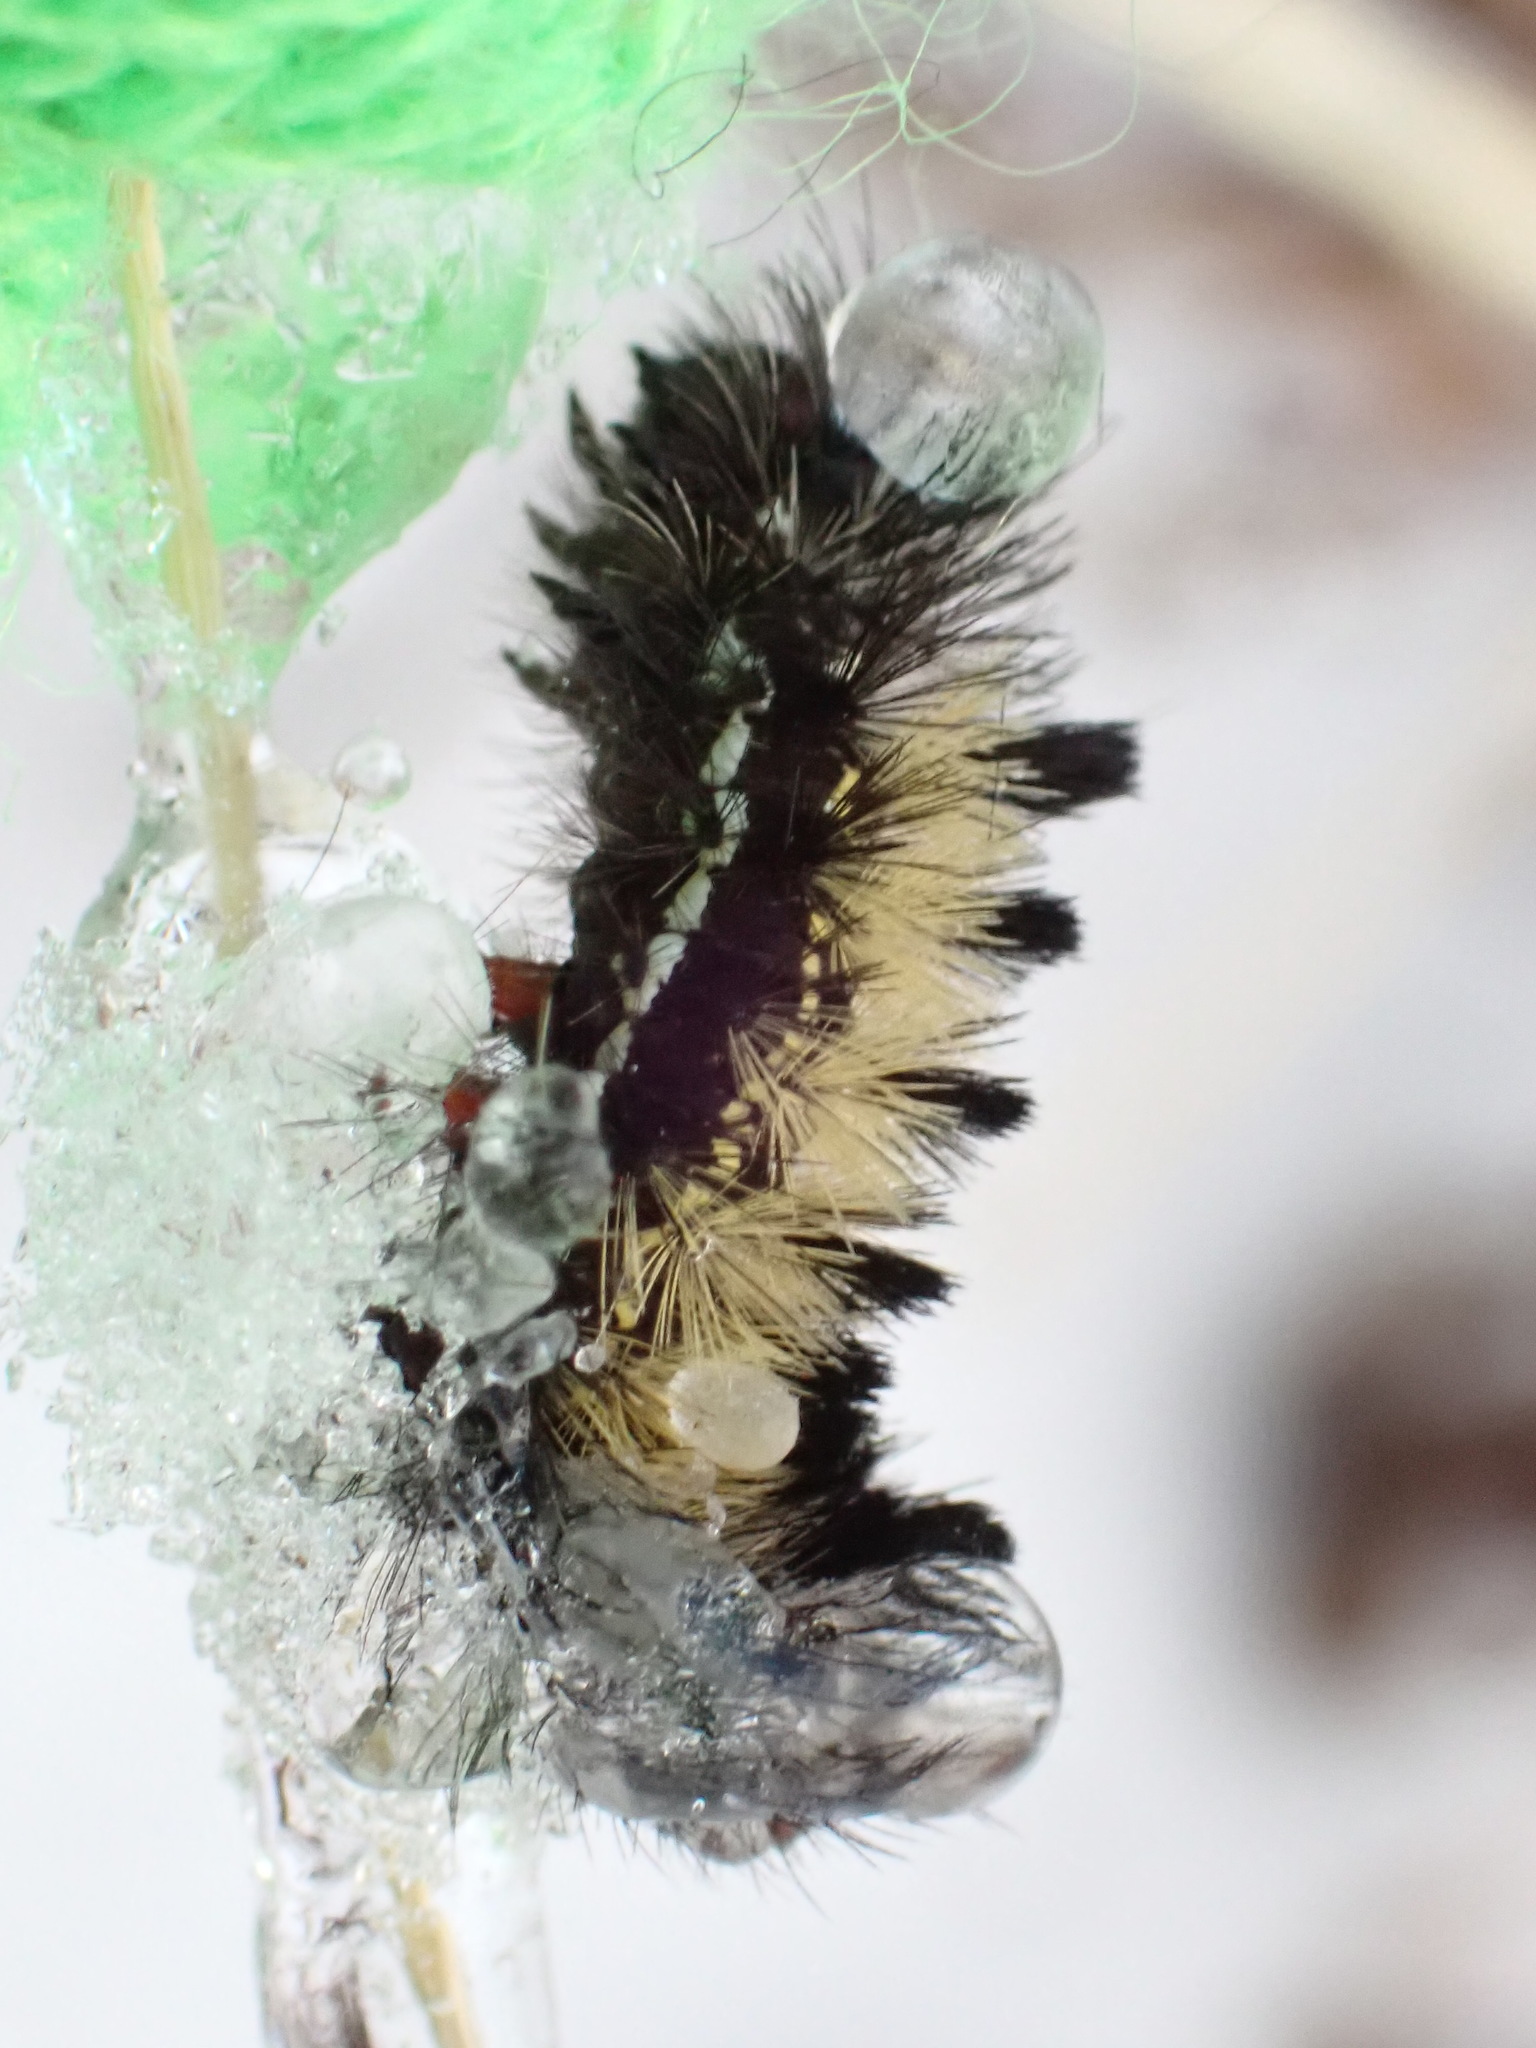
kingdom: Animalia
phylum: Arthropoda
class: Insecta
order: Lepidoptera
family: Erebidae
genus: Ctenucha
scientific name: Ctenucha virginica
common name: Virginia ctenucha moth
